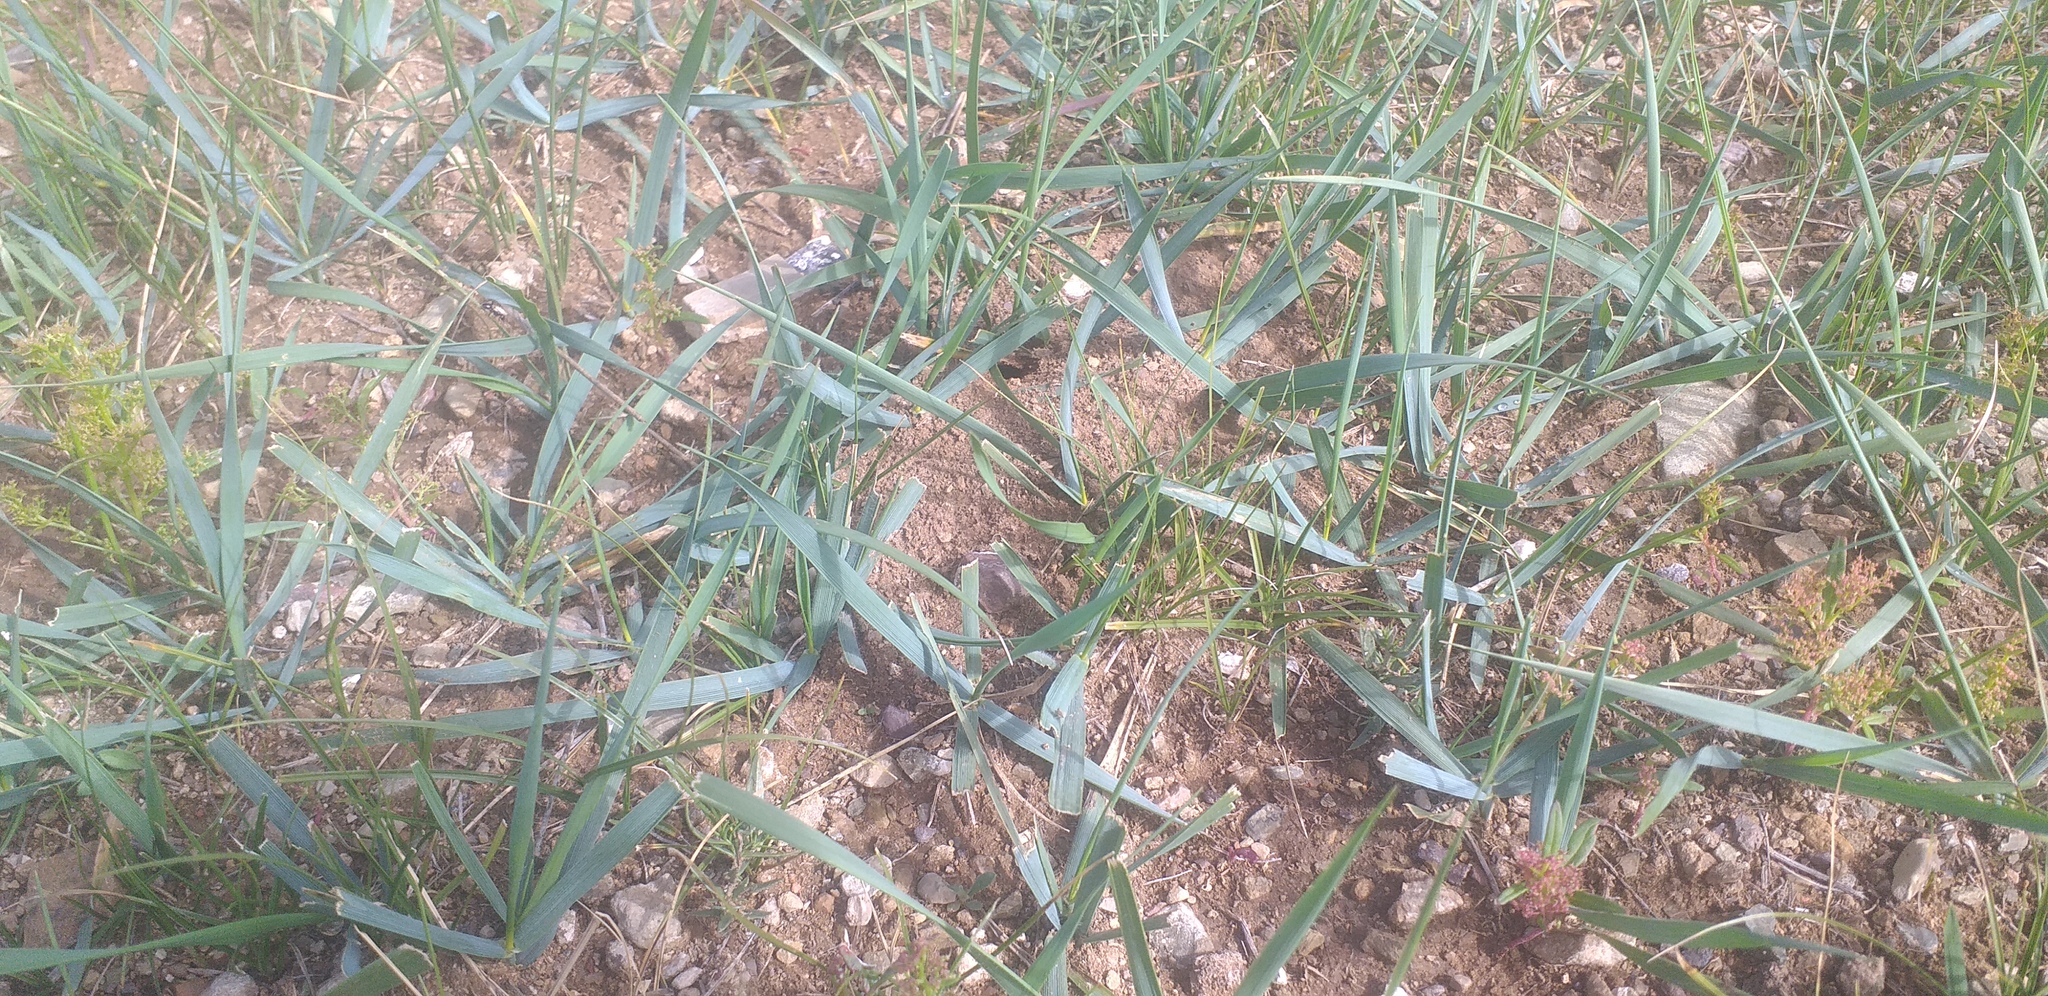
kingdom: Plantae
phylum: Tracheophyta
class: Liliopsida
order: Poales
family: Poaceae
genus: Leymus
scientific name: Leymus chinensis
